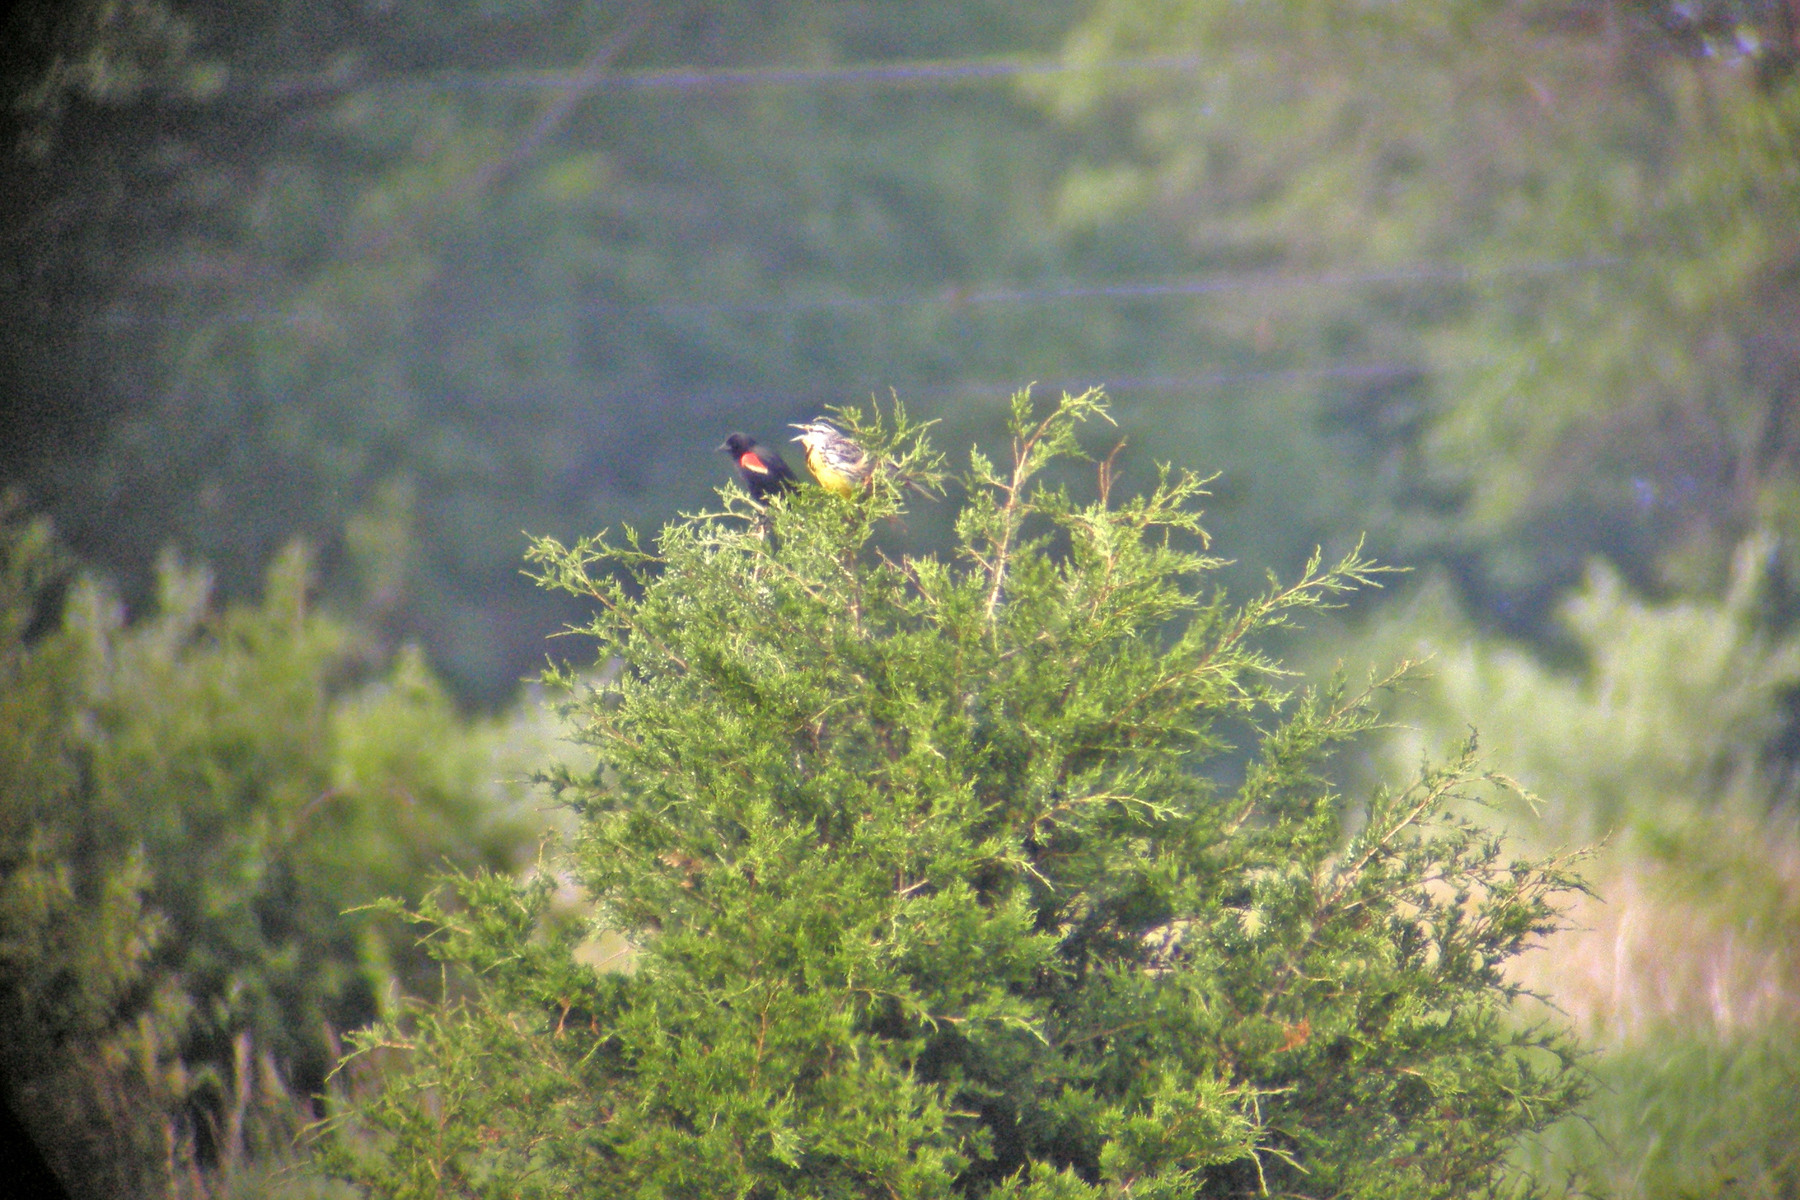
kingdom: Plantae
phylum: Tracheophyta
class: Pinopsida
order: Pinales
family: Cupressaceae
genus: Juniperus
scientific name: Juniperus virginiana
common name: Red juniper
